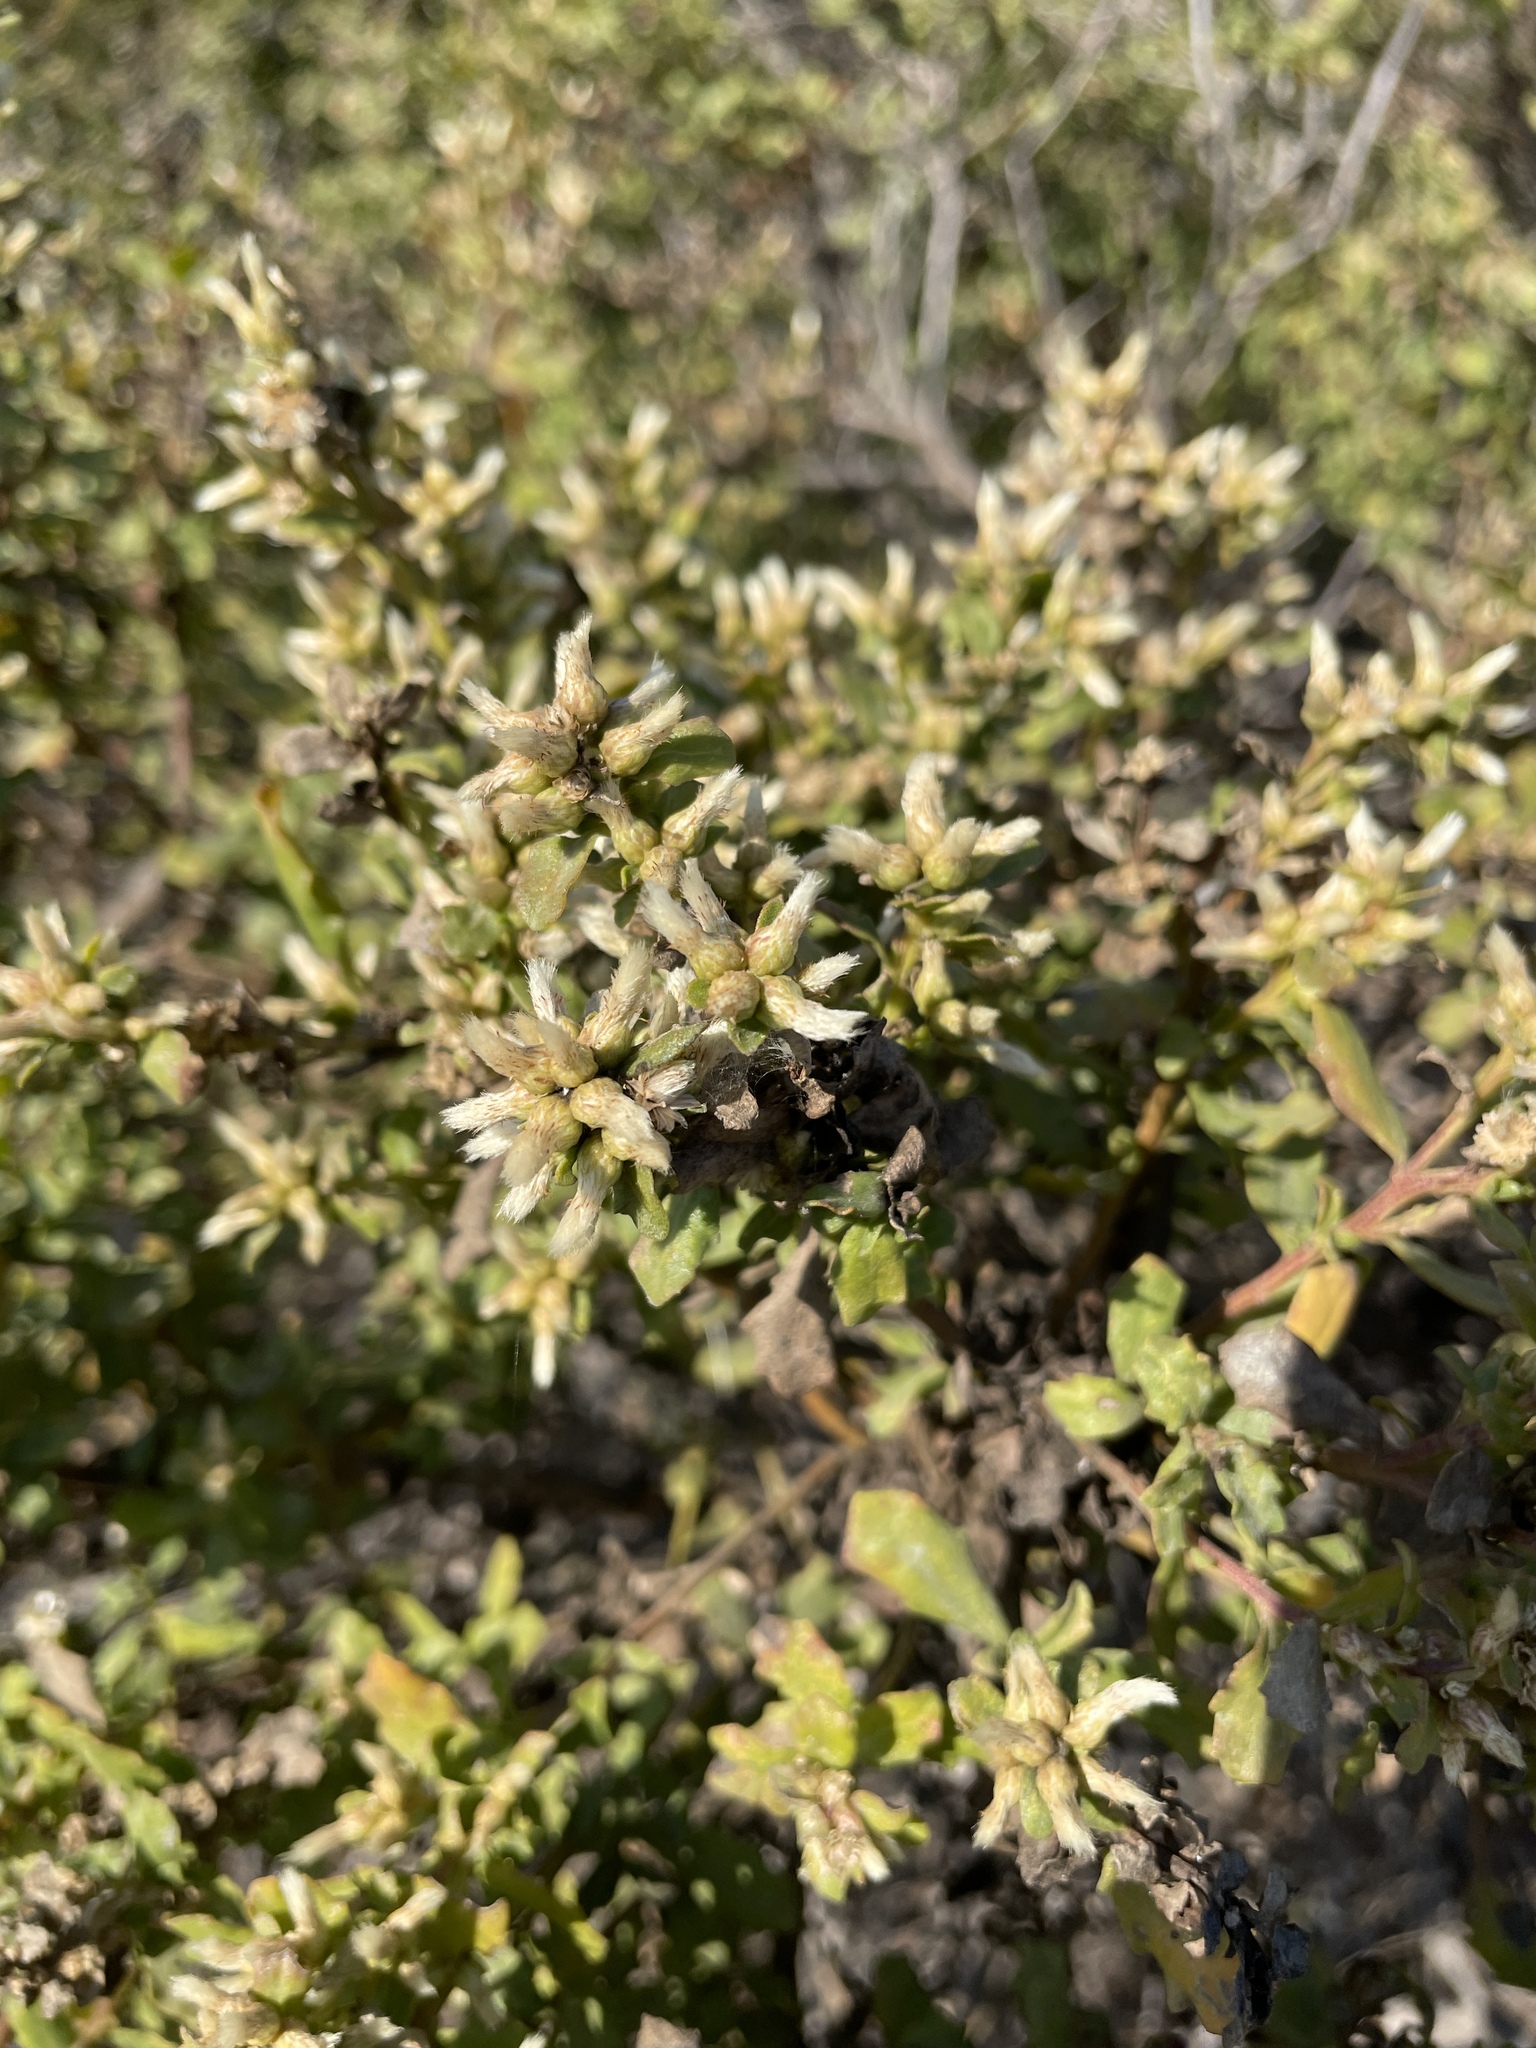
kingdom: Plantae
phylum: Tracheophyta
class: Magnoliopsida
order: Asterales
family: Asteraceae
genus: Baccharis
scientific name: Baccharis pilularis
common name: Coyotebrush
